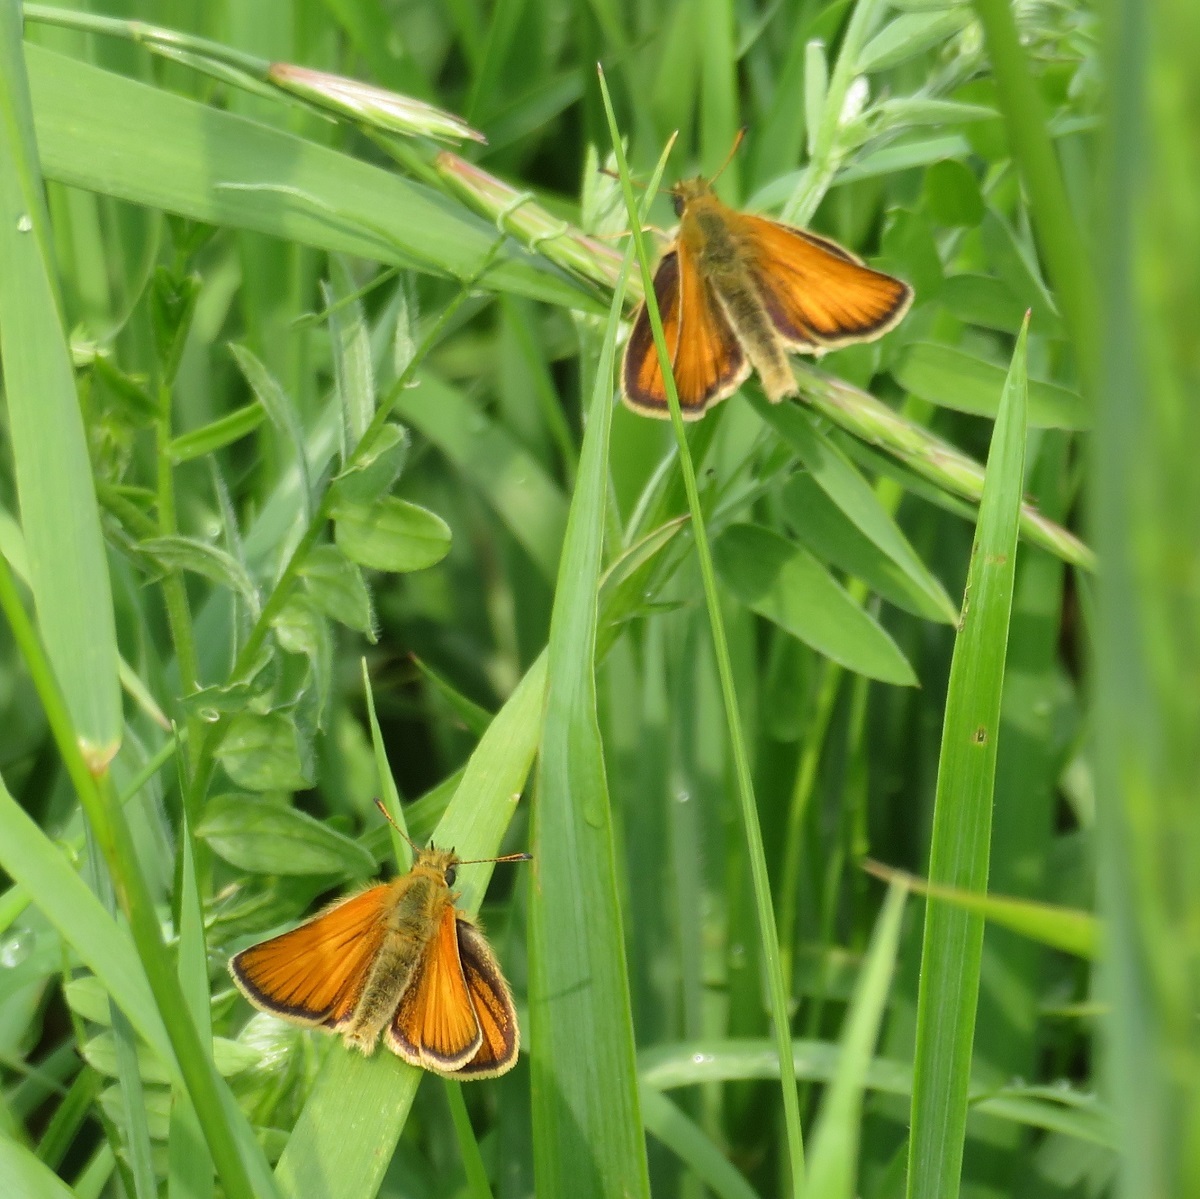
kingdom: Animalia
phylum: Arthropoda
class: Insecta
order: Lepidoptera
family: Hesperiidae
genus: Thymelicus
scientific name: Thymelicus lineola
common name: Essex skipper
